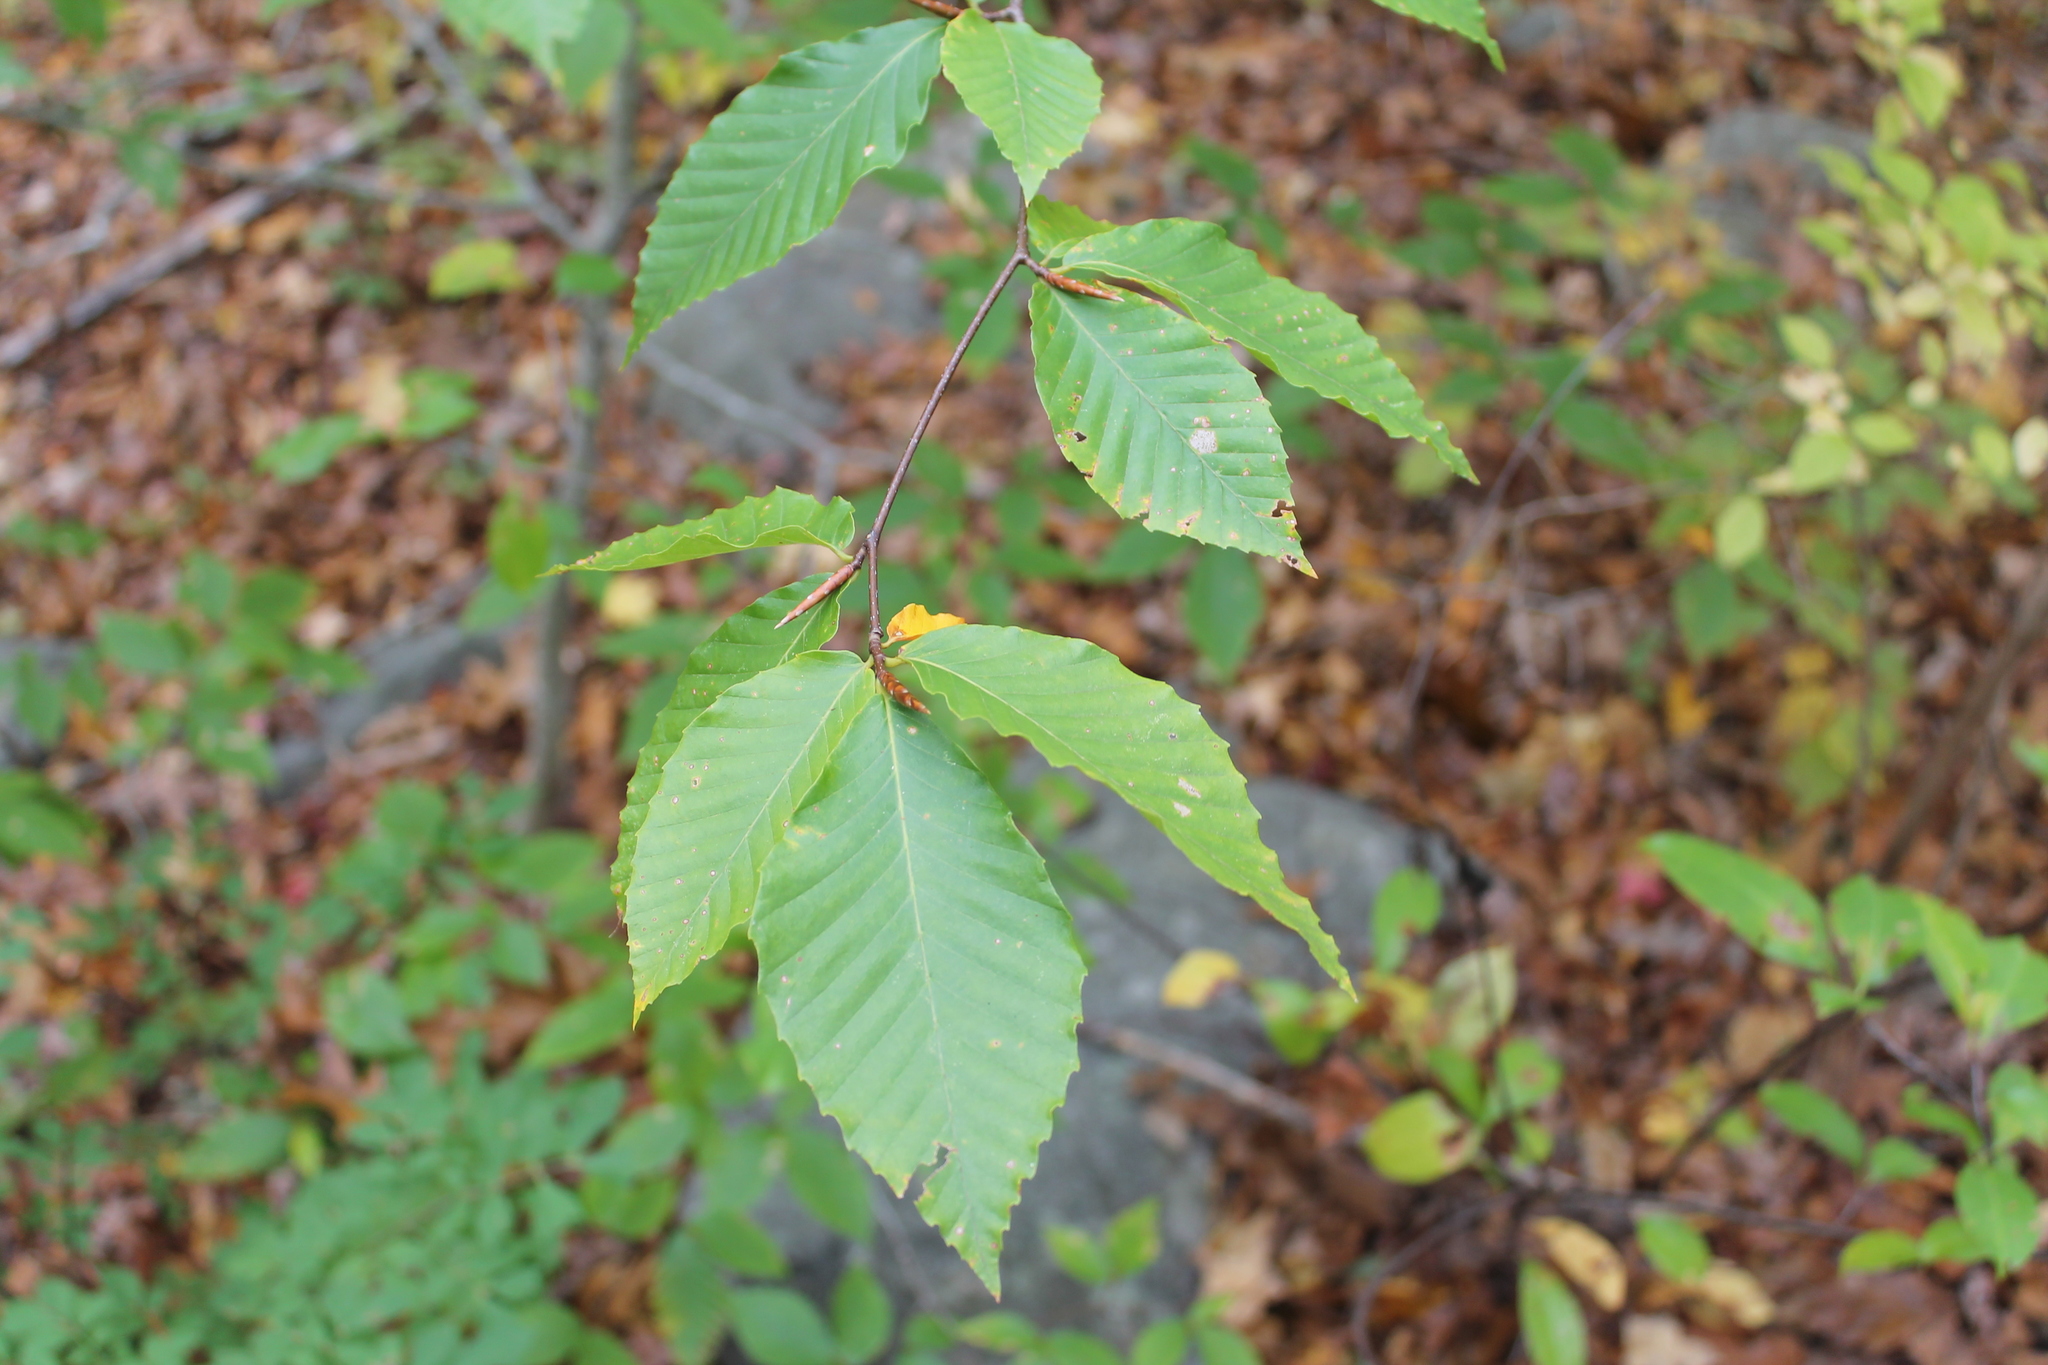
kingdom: Plantae
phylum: Tracheophyta
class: Magnoliopsida
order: Fagales
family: Fagaceae
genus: Fagus
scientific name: Fagus grandifolia
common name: American beech
